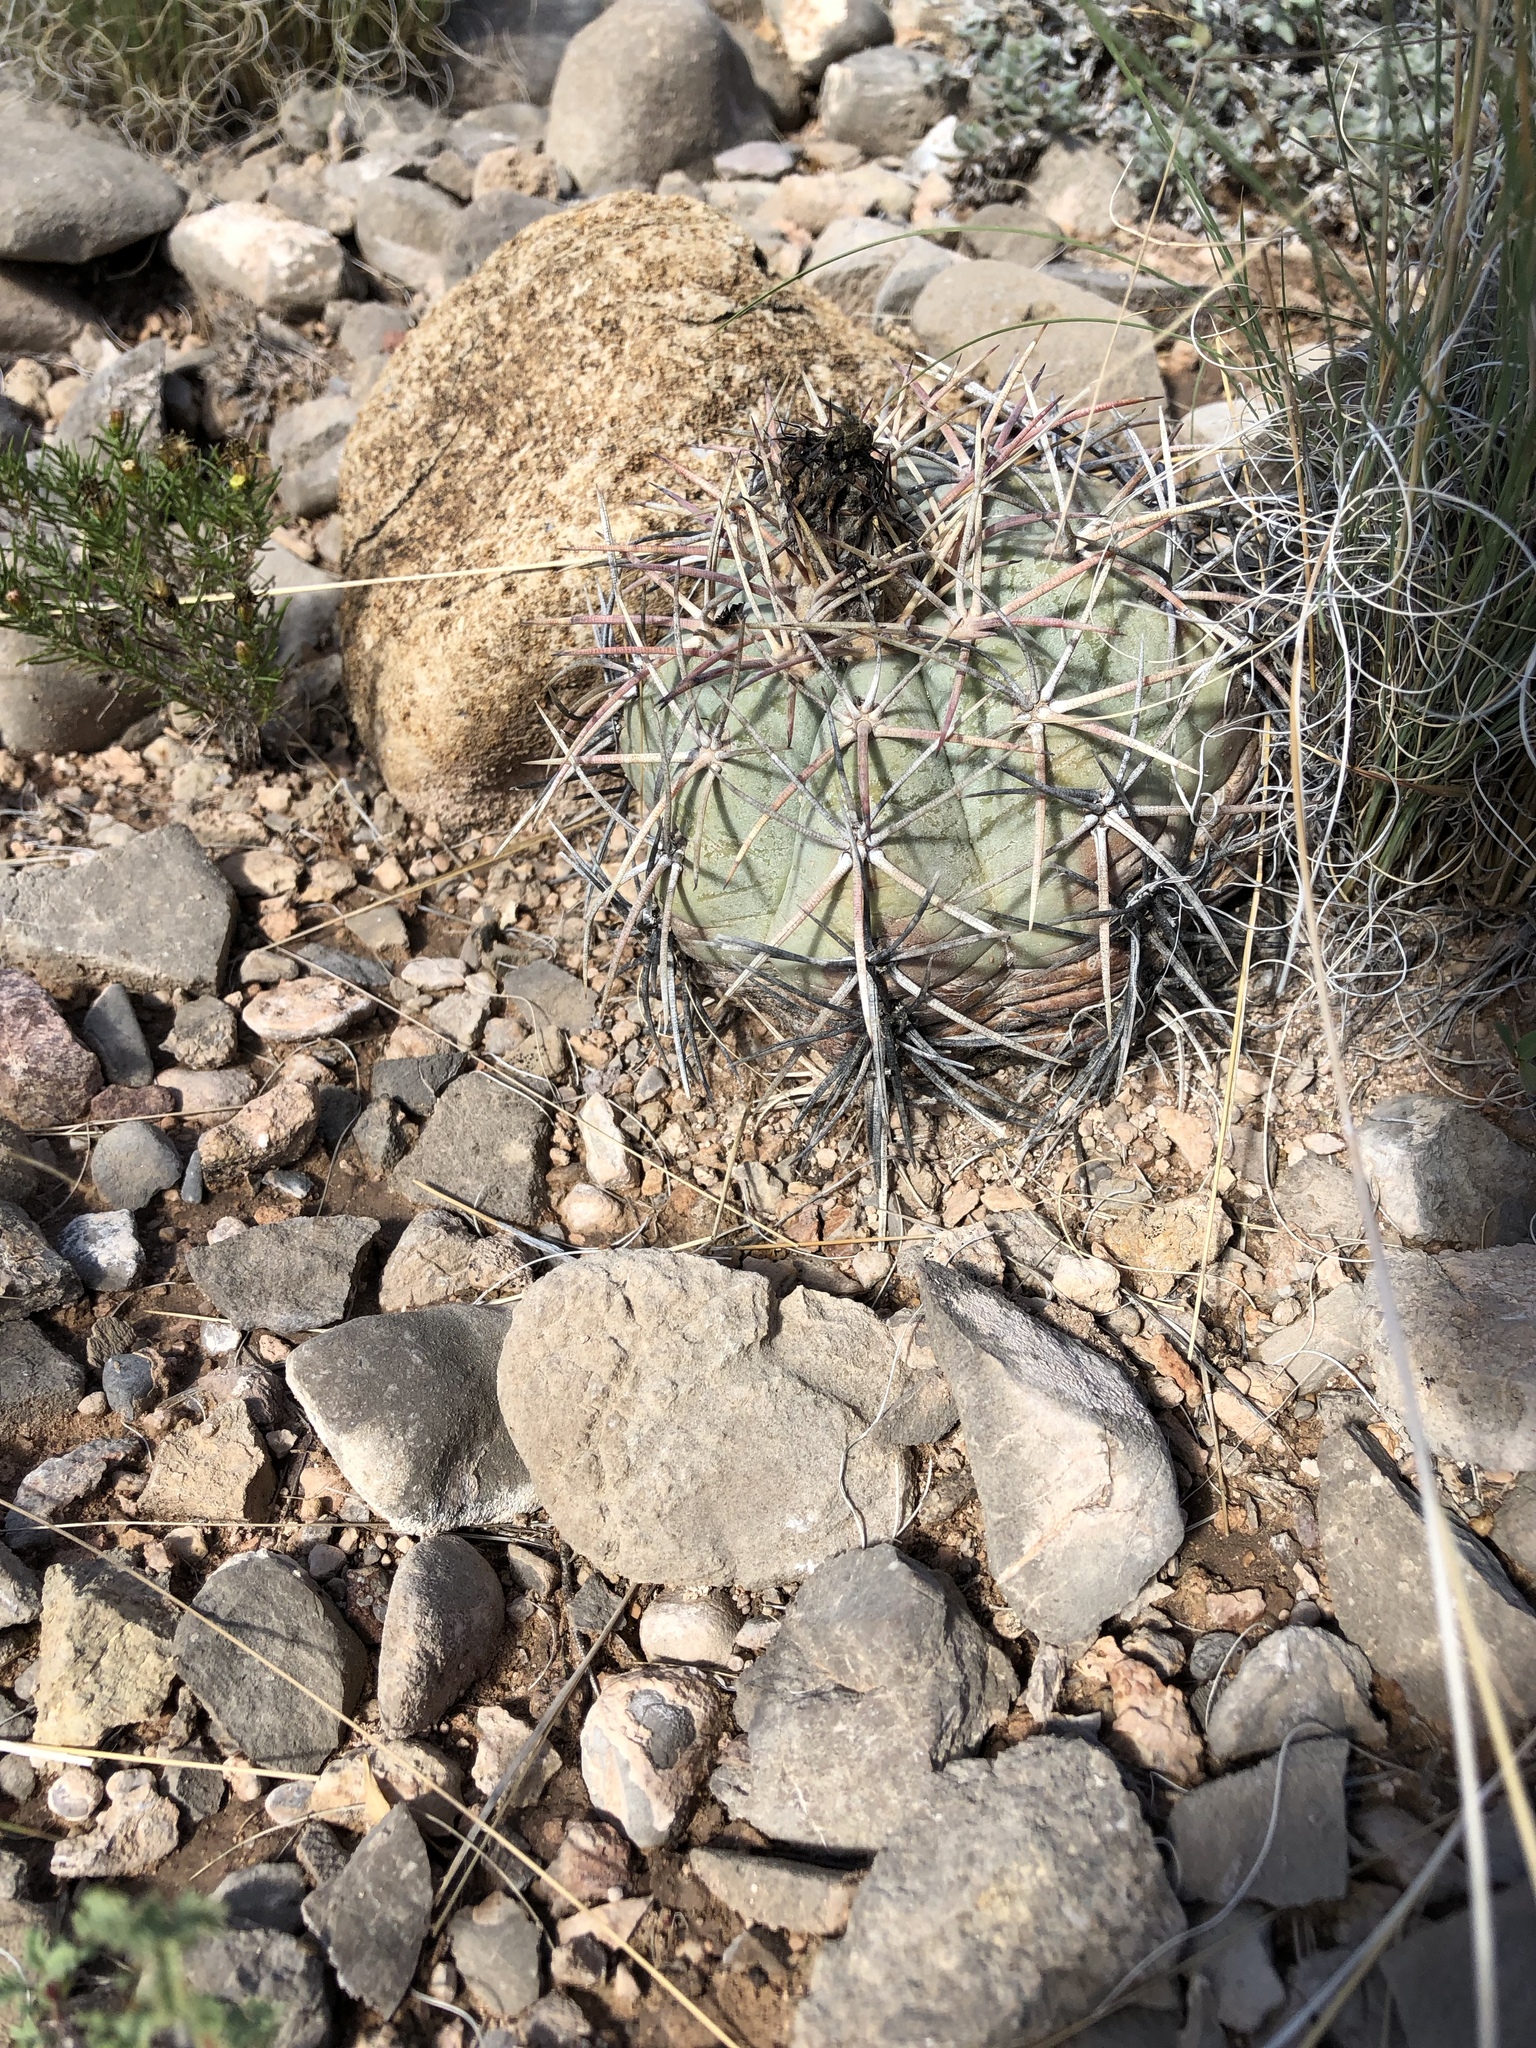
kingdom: Plantae
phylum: Tracheophyta
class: Magnoliopsida
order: Caryophyllales
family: Cactaceae
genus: Echinocactus
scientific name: Echinocactus horizonthalonius
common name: Devilshead
